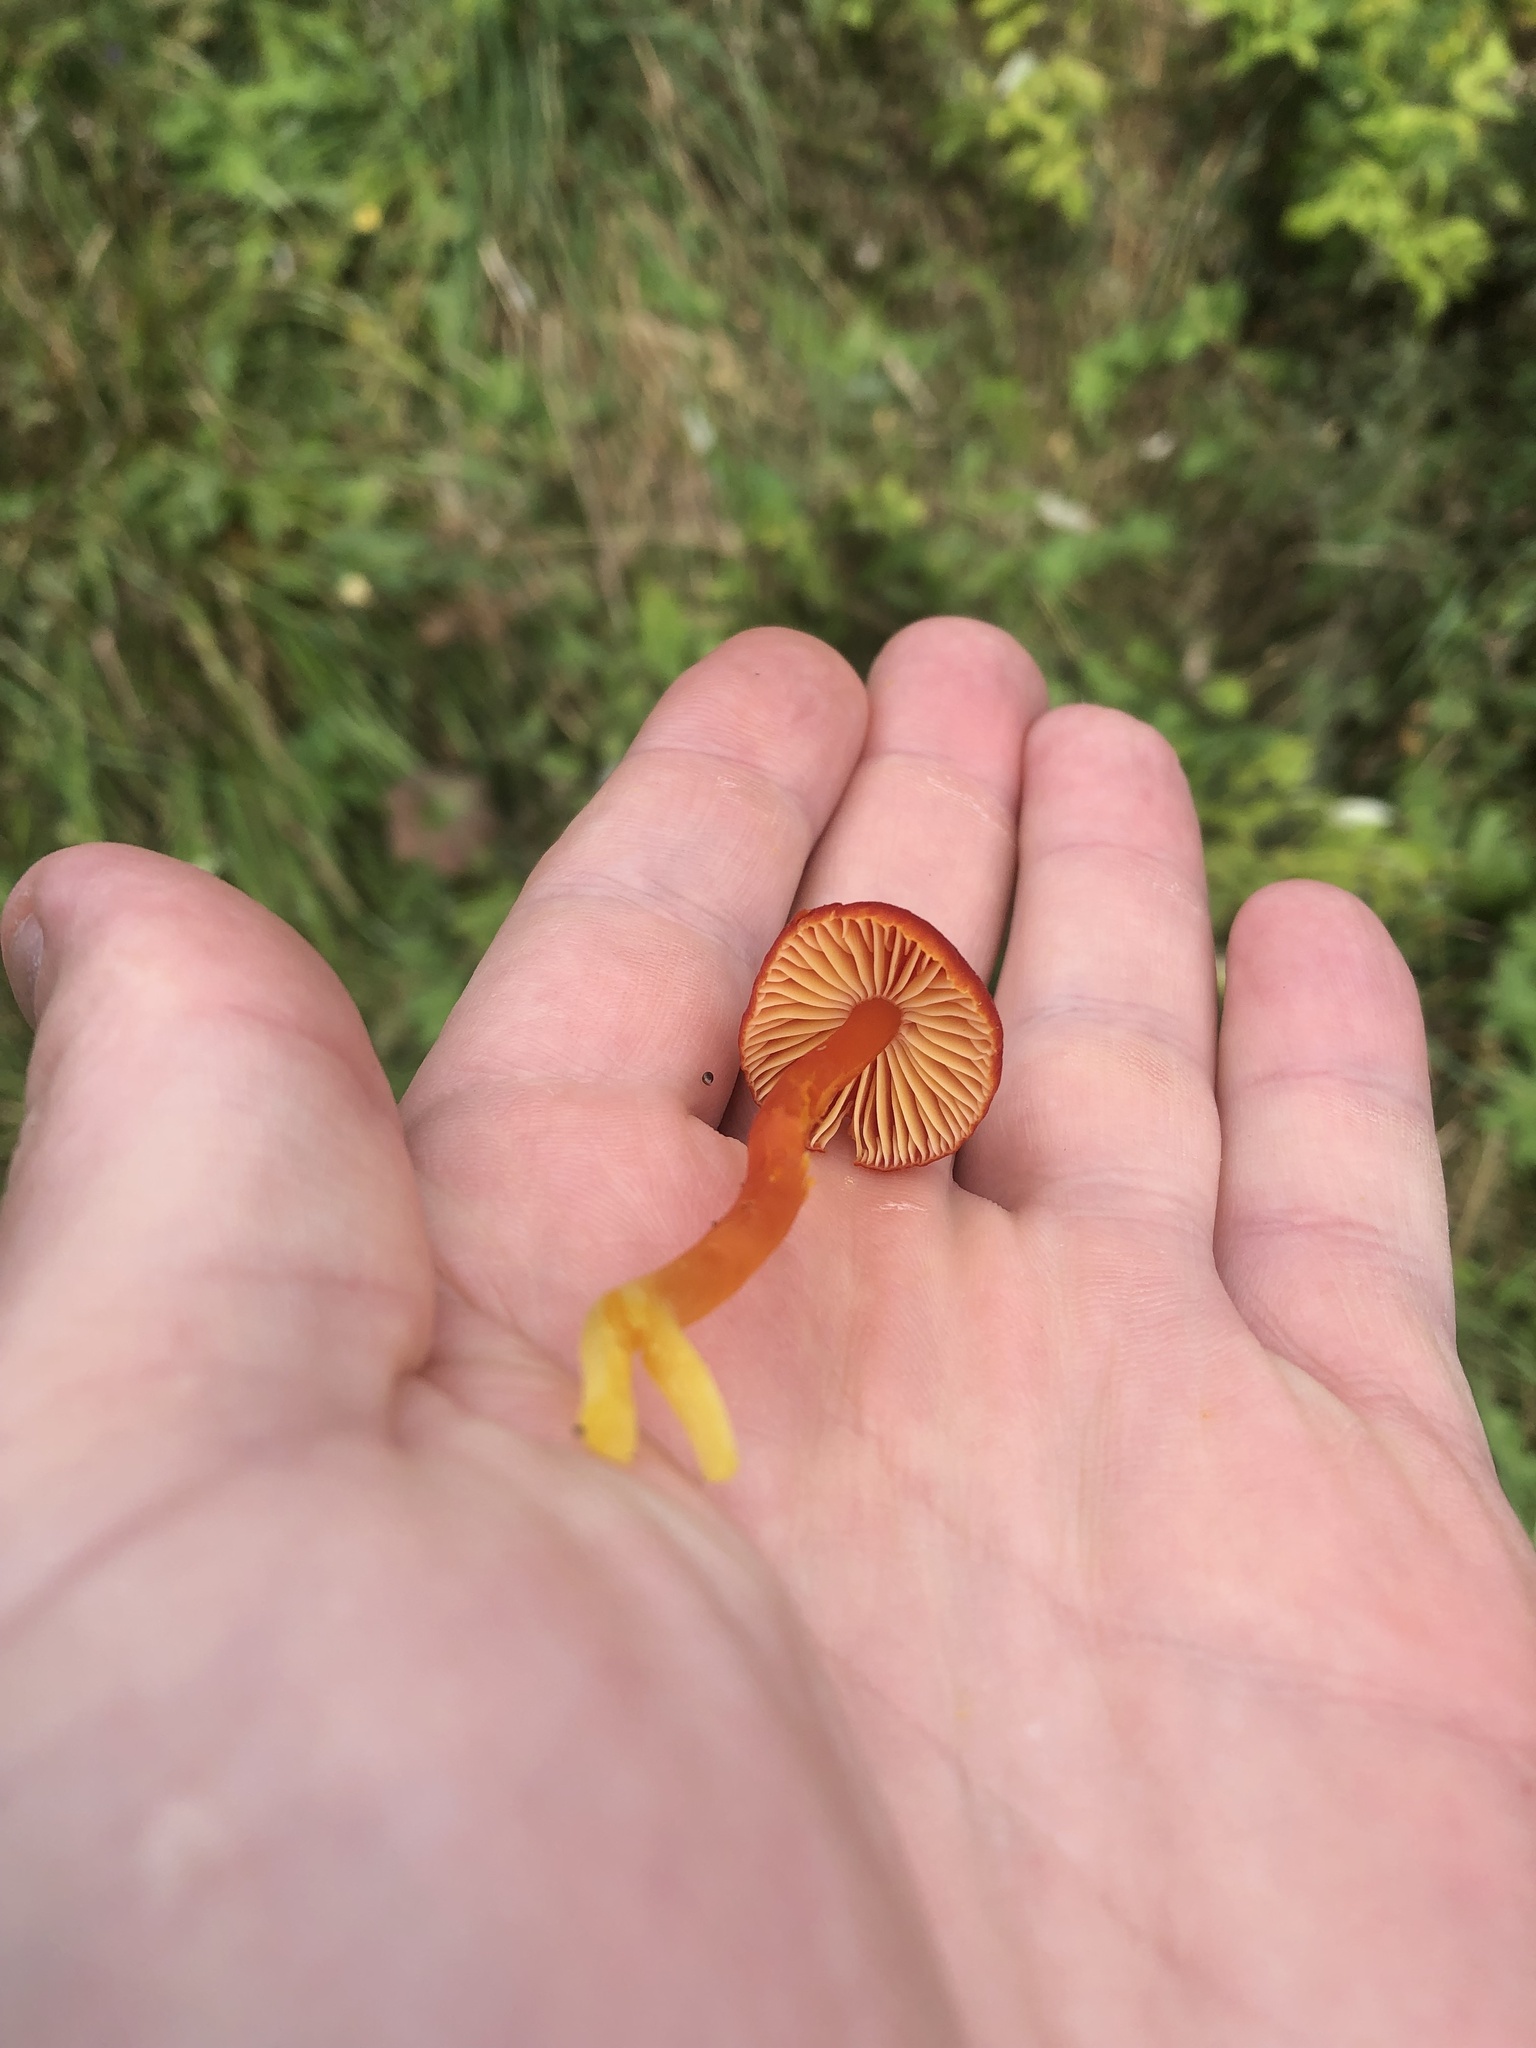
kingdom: Fungi
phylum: Basidiomycota
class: Agaricomycetes
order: Agaricales
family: Hygrophoraceae
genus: Hygrocybe
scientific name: Hygrocybe coccinea
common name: Scarlet hood
